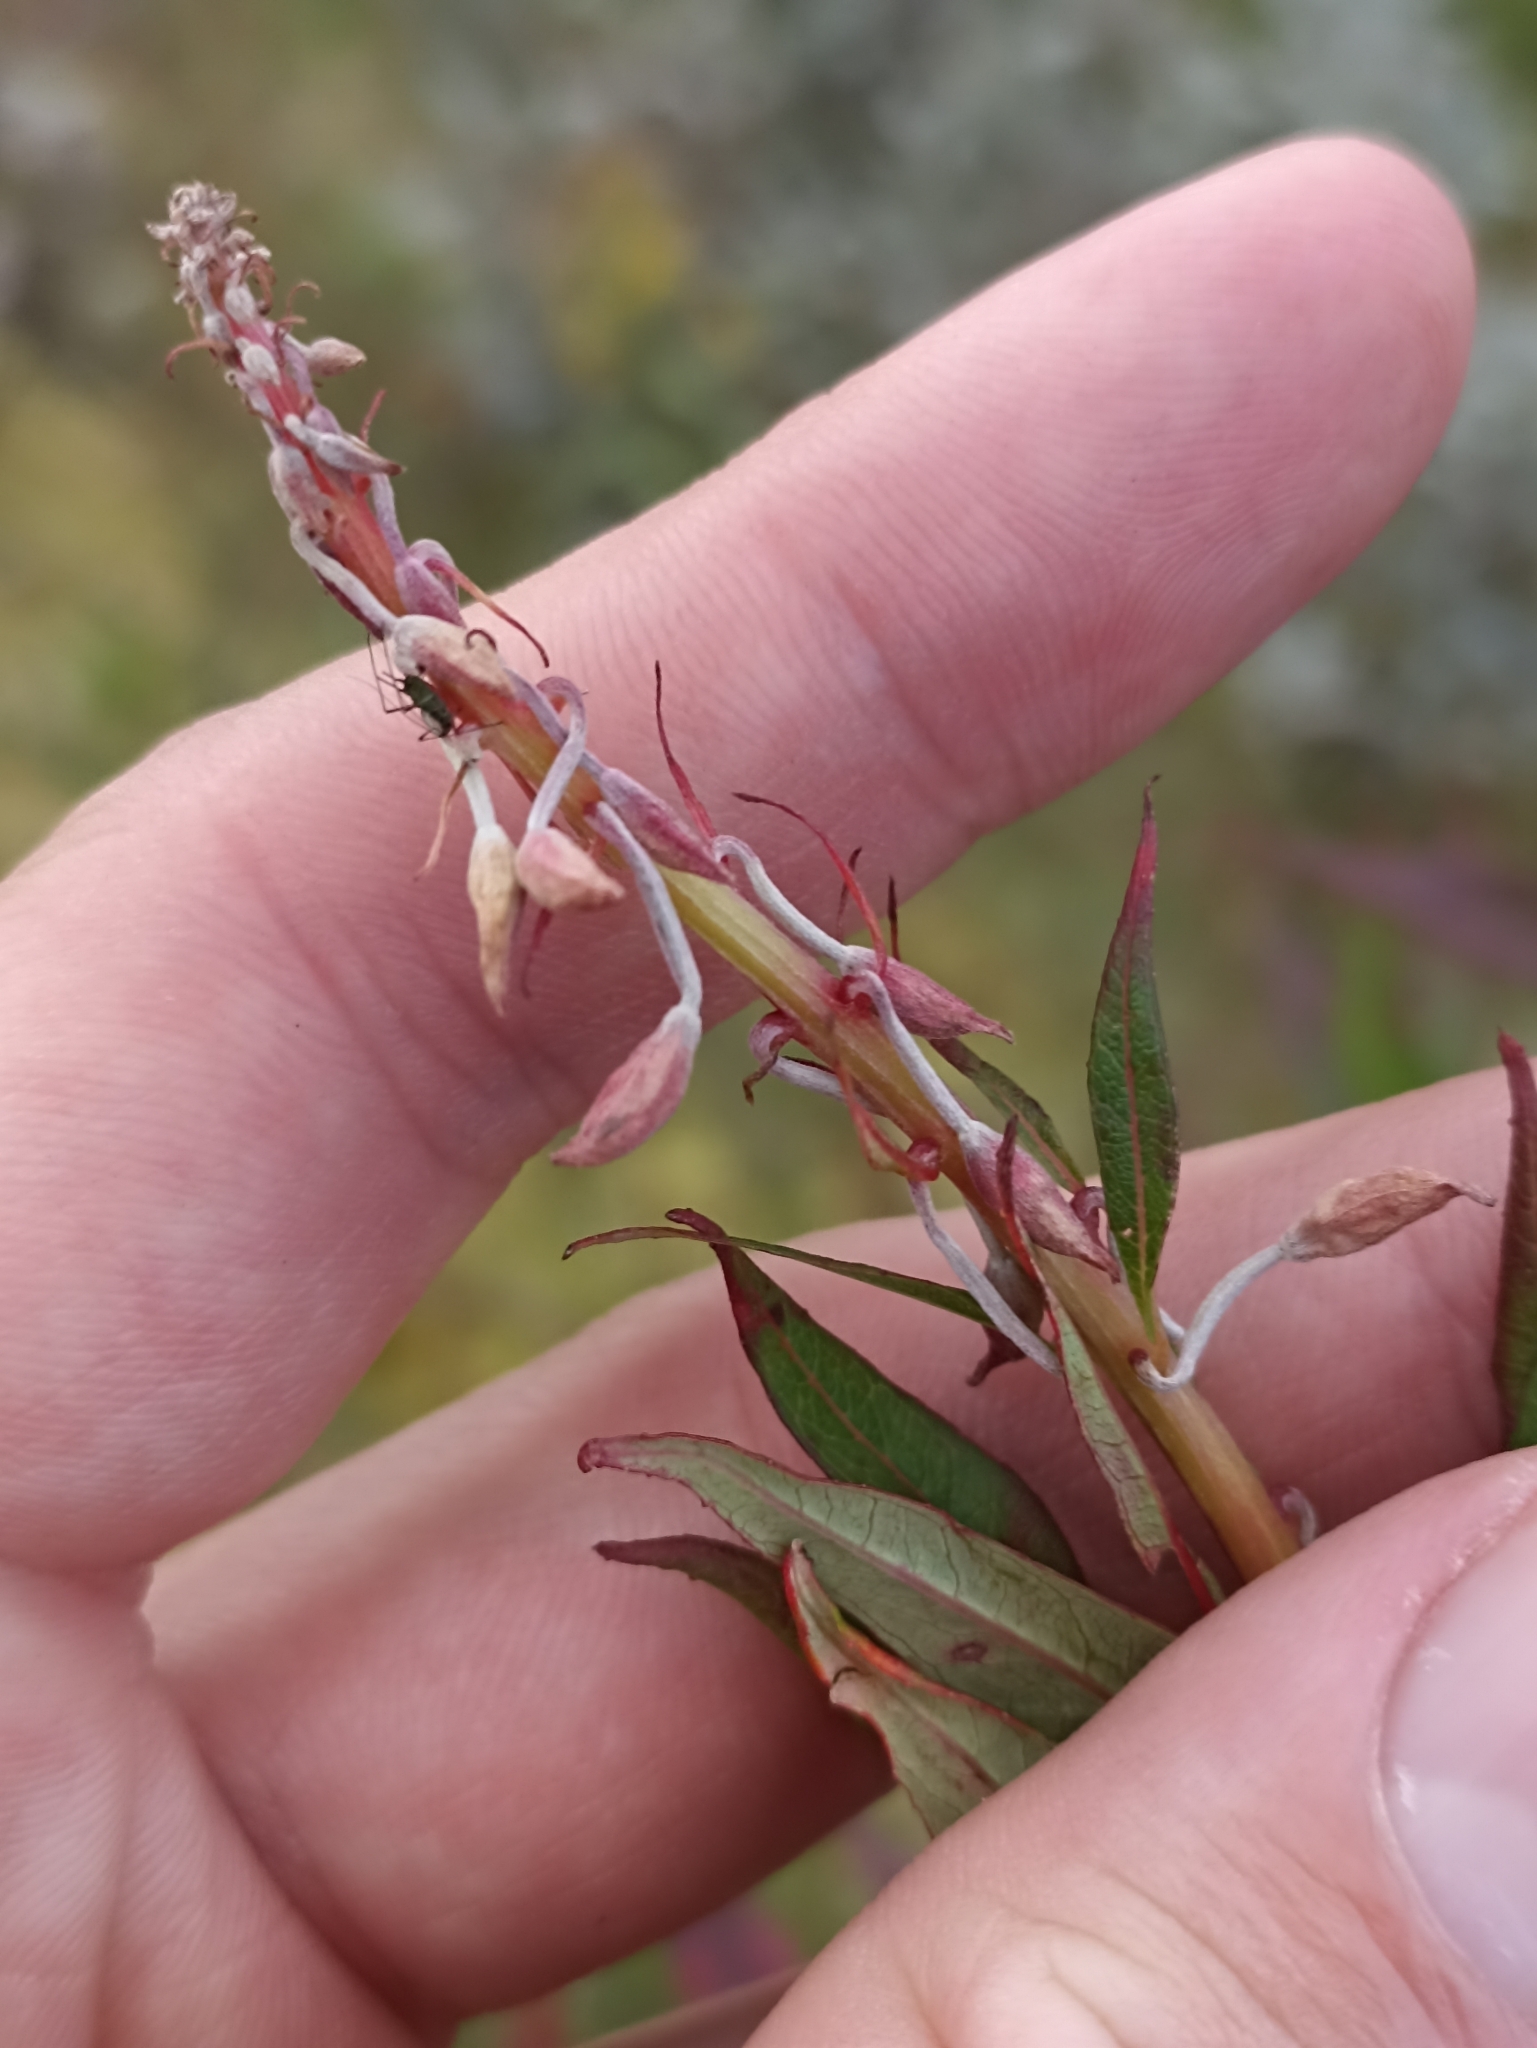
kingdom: Plantae
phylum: Tracheophyta
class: Magnoliopsida
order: Myrtales
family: Onagraceae
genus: Chamaenerion
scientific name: Chamaenerion angustifolium
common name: Fireweed
